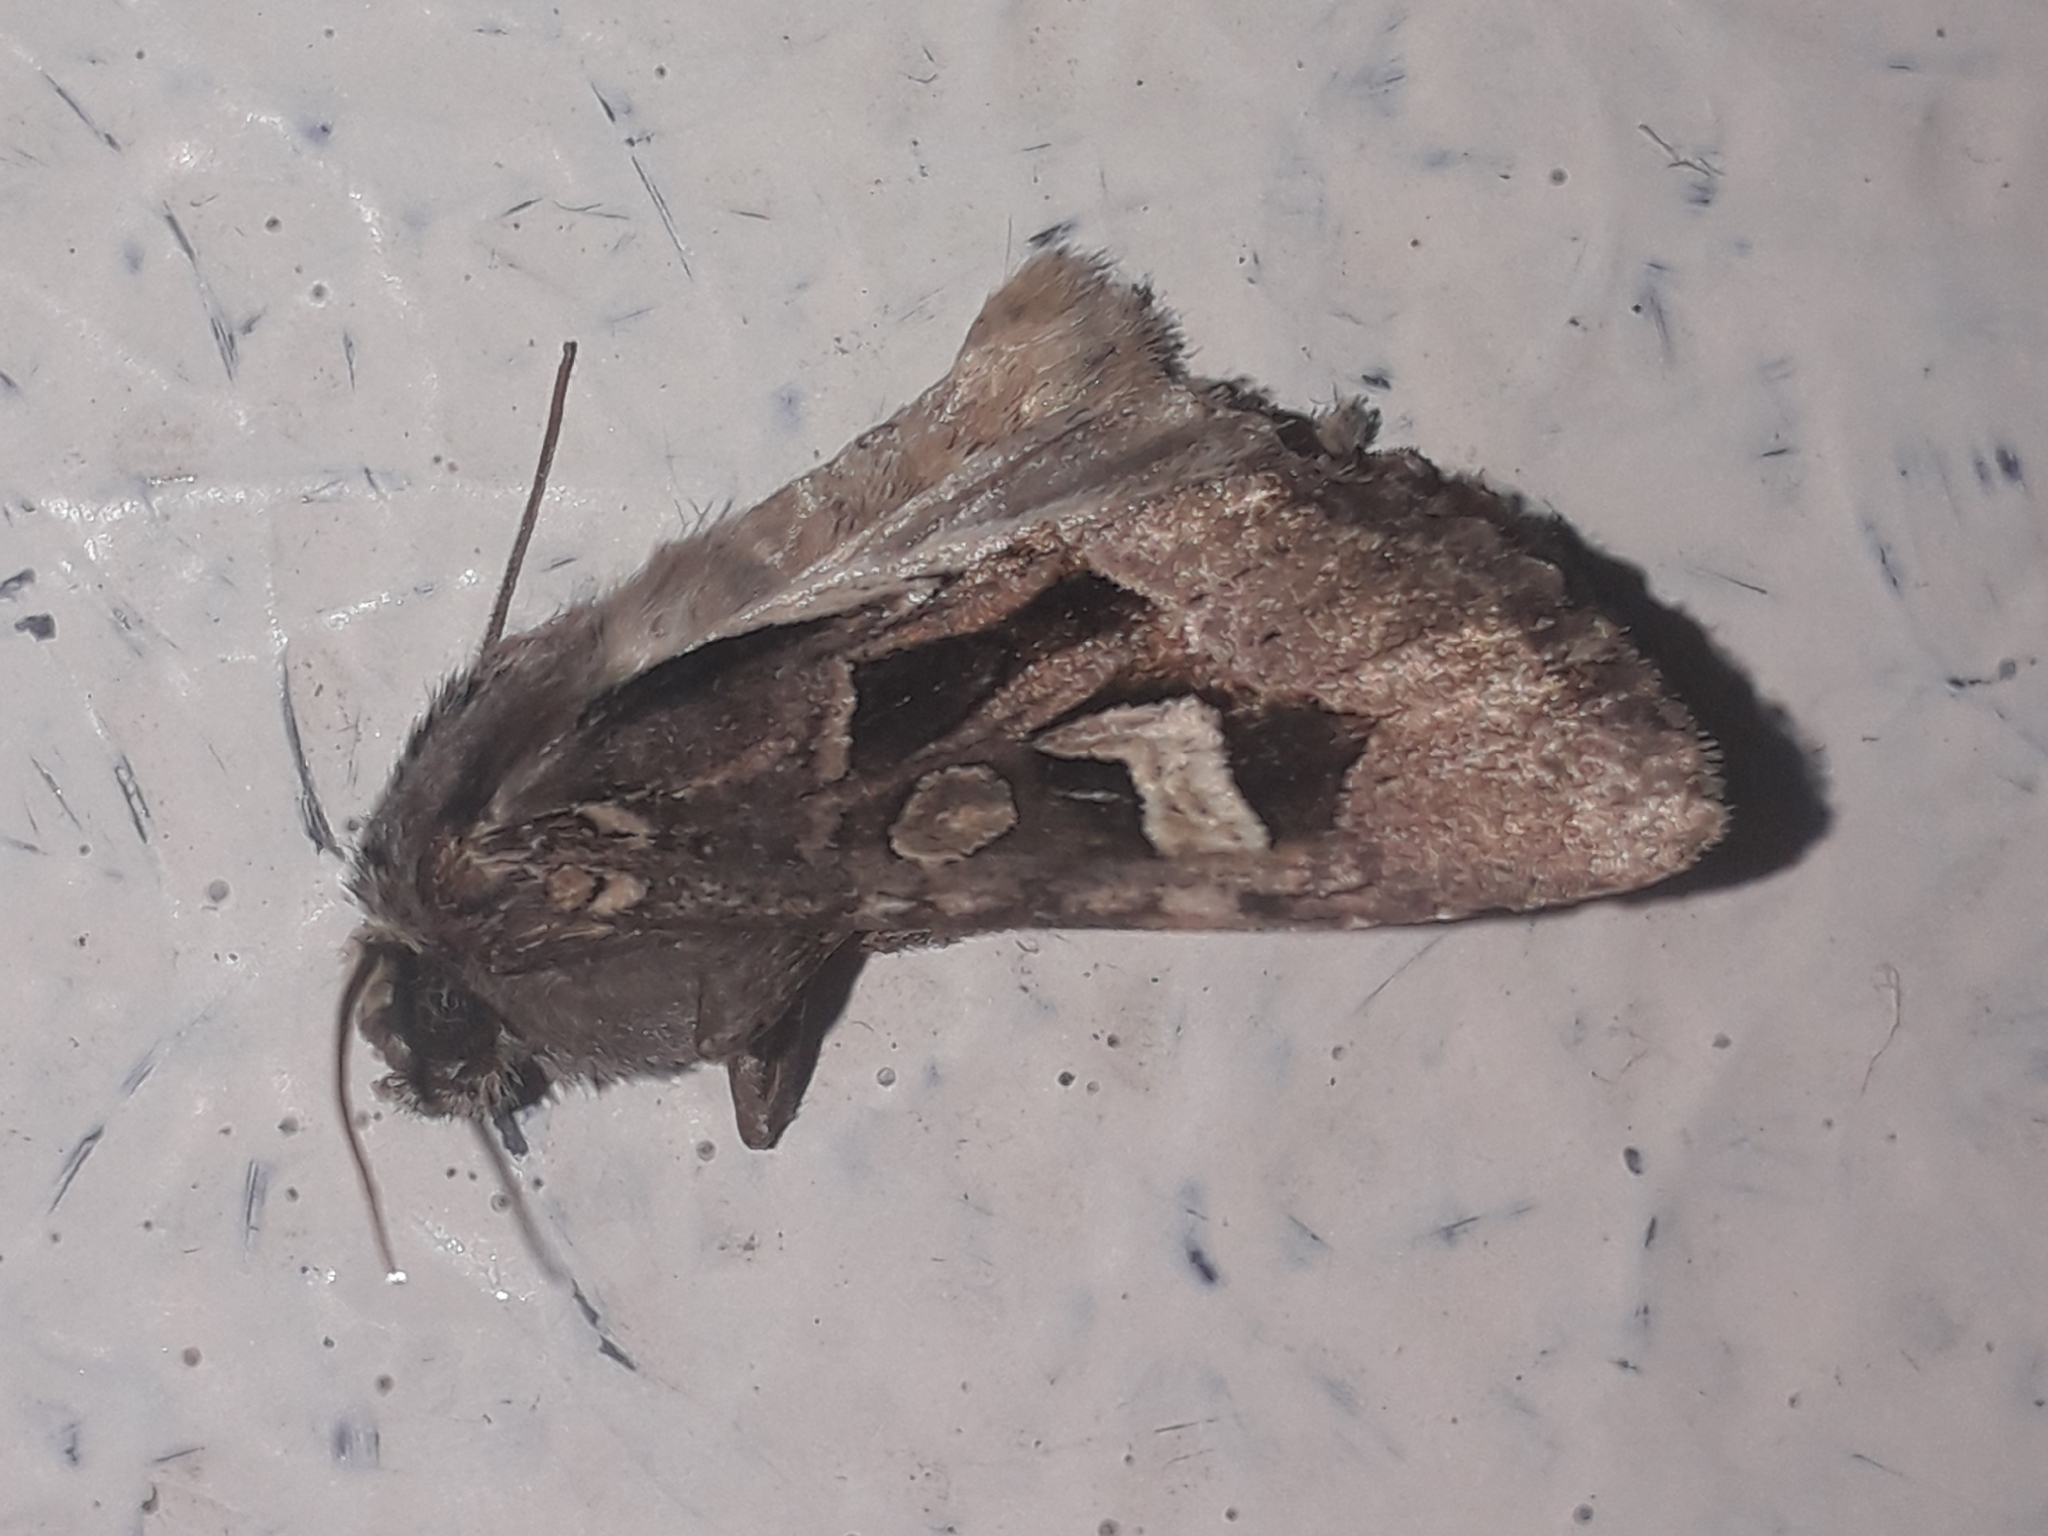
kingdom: Animalia
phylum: Arthropoda
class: Insecta
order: Lepidoptera
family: Noctuidae
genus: Trigonophora
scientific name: Trigonophora flammea
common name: Flame brocade
